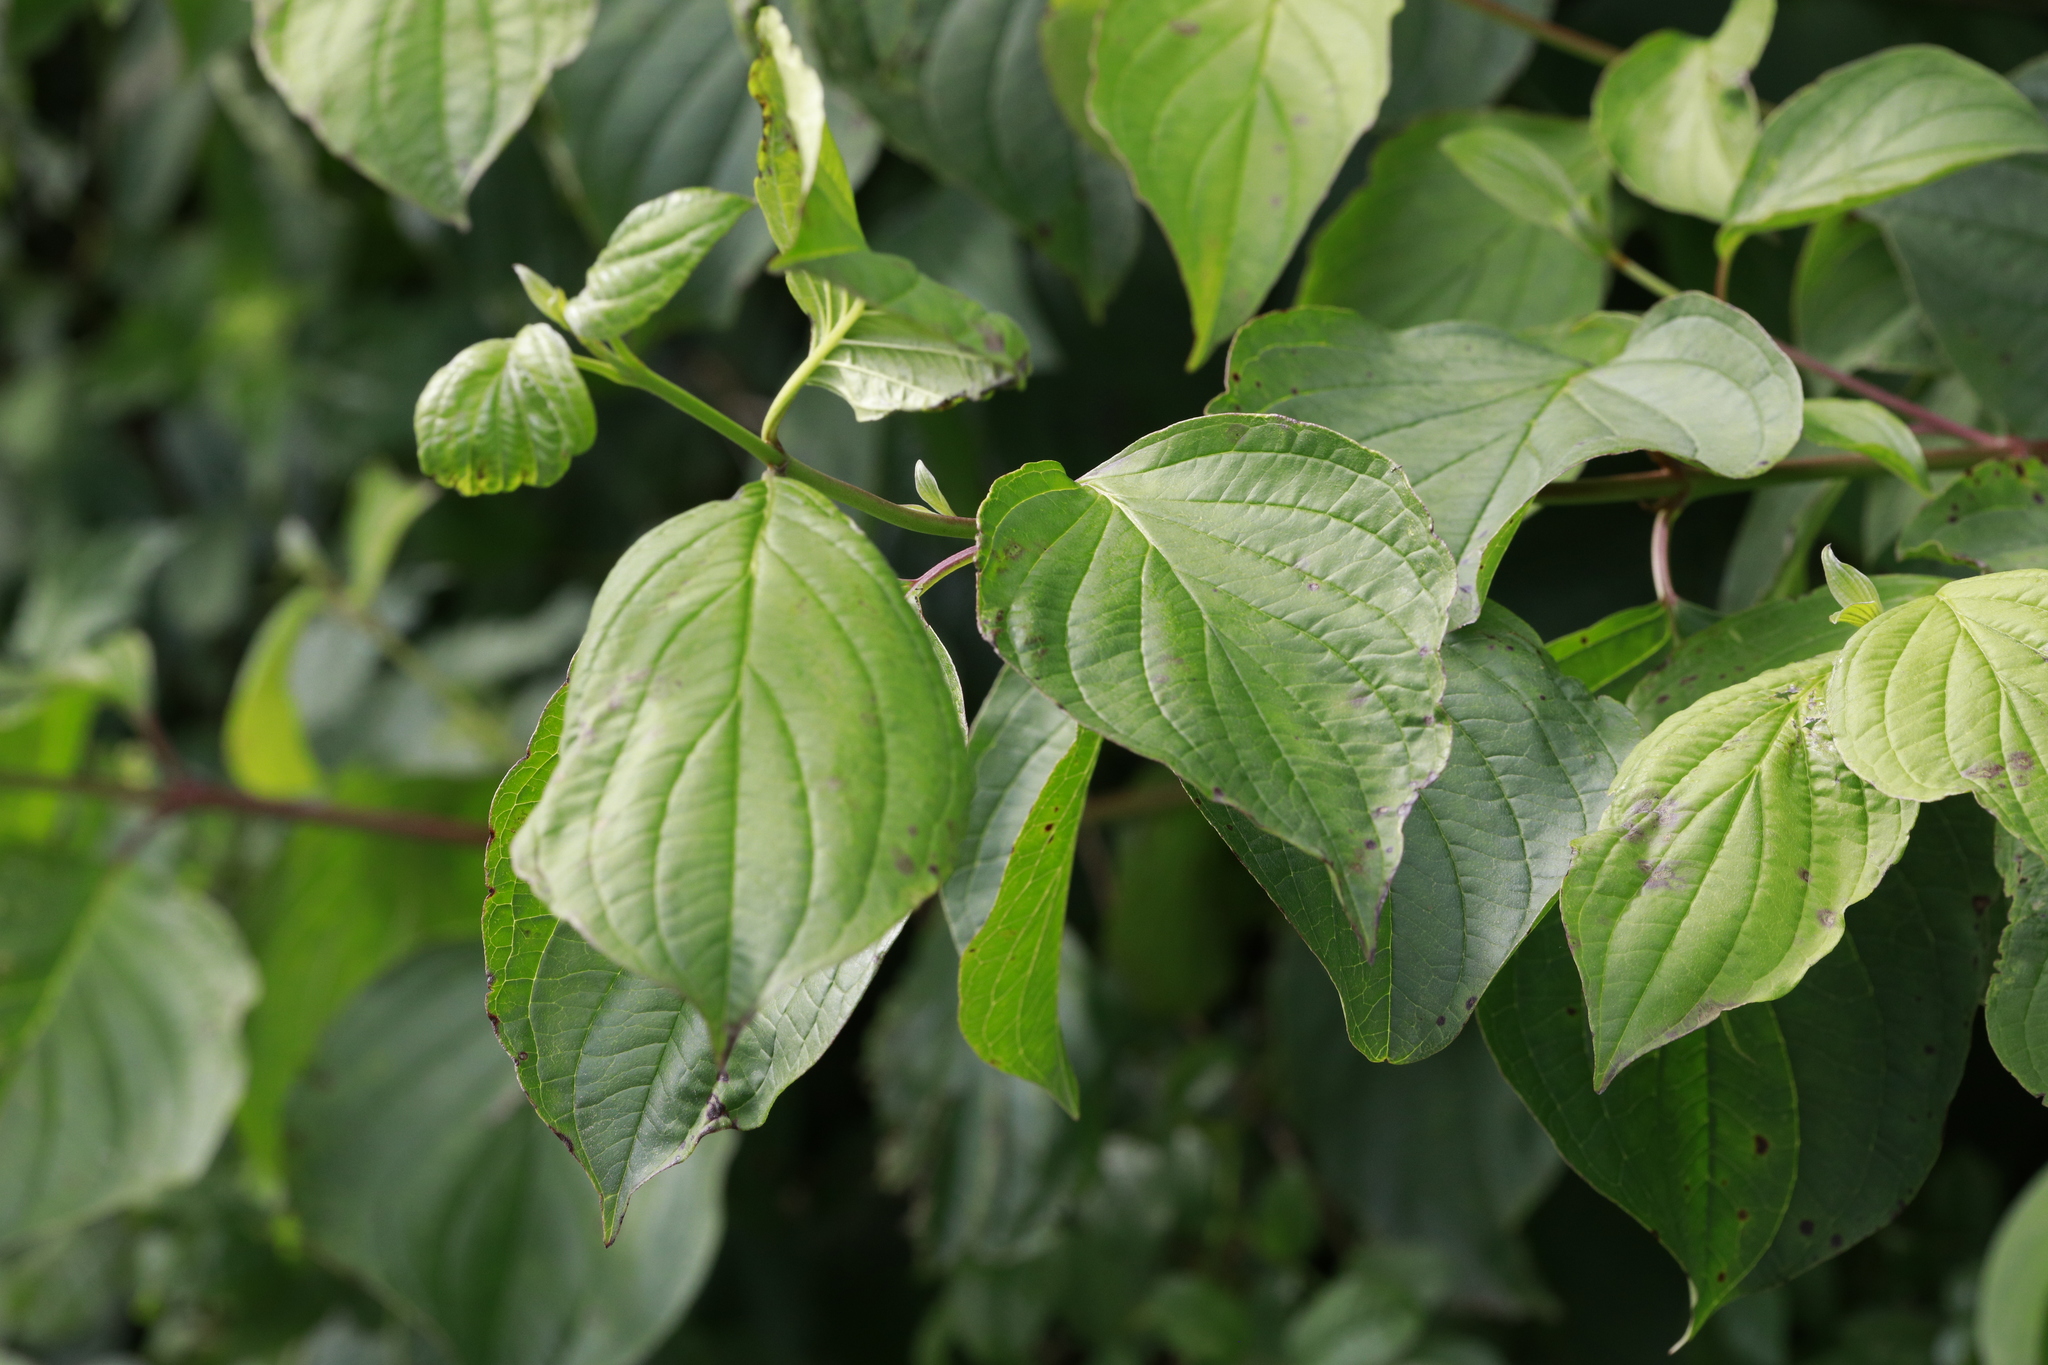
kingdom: Plantae
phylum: Tracheophyta
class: Magnoliopsida
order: Cornales
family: Cornaceae
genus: Cornus
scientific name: Cornus sanguinea
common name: Dogwood
